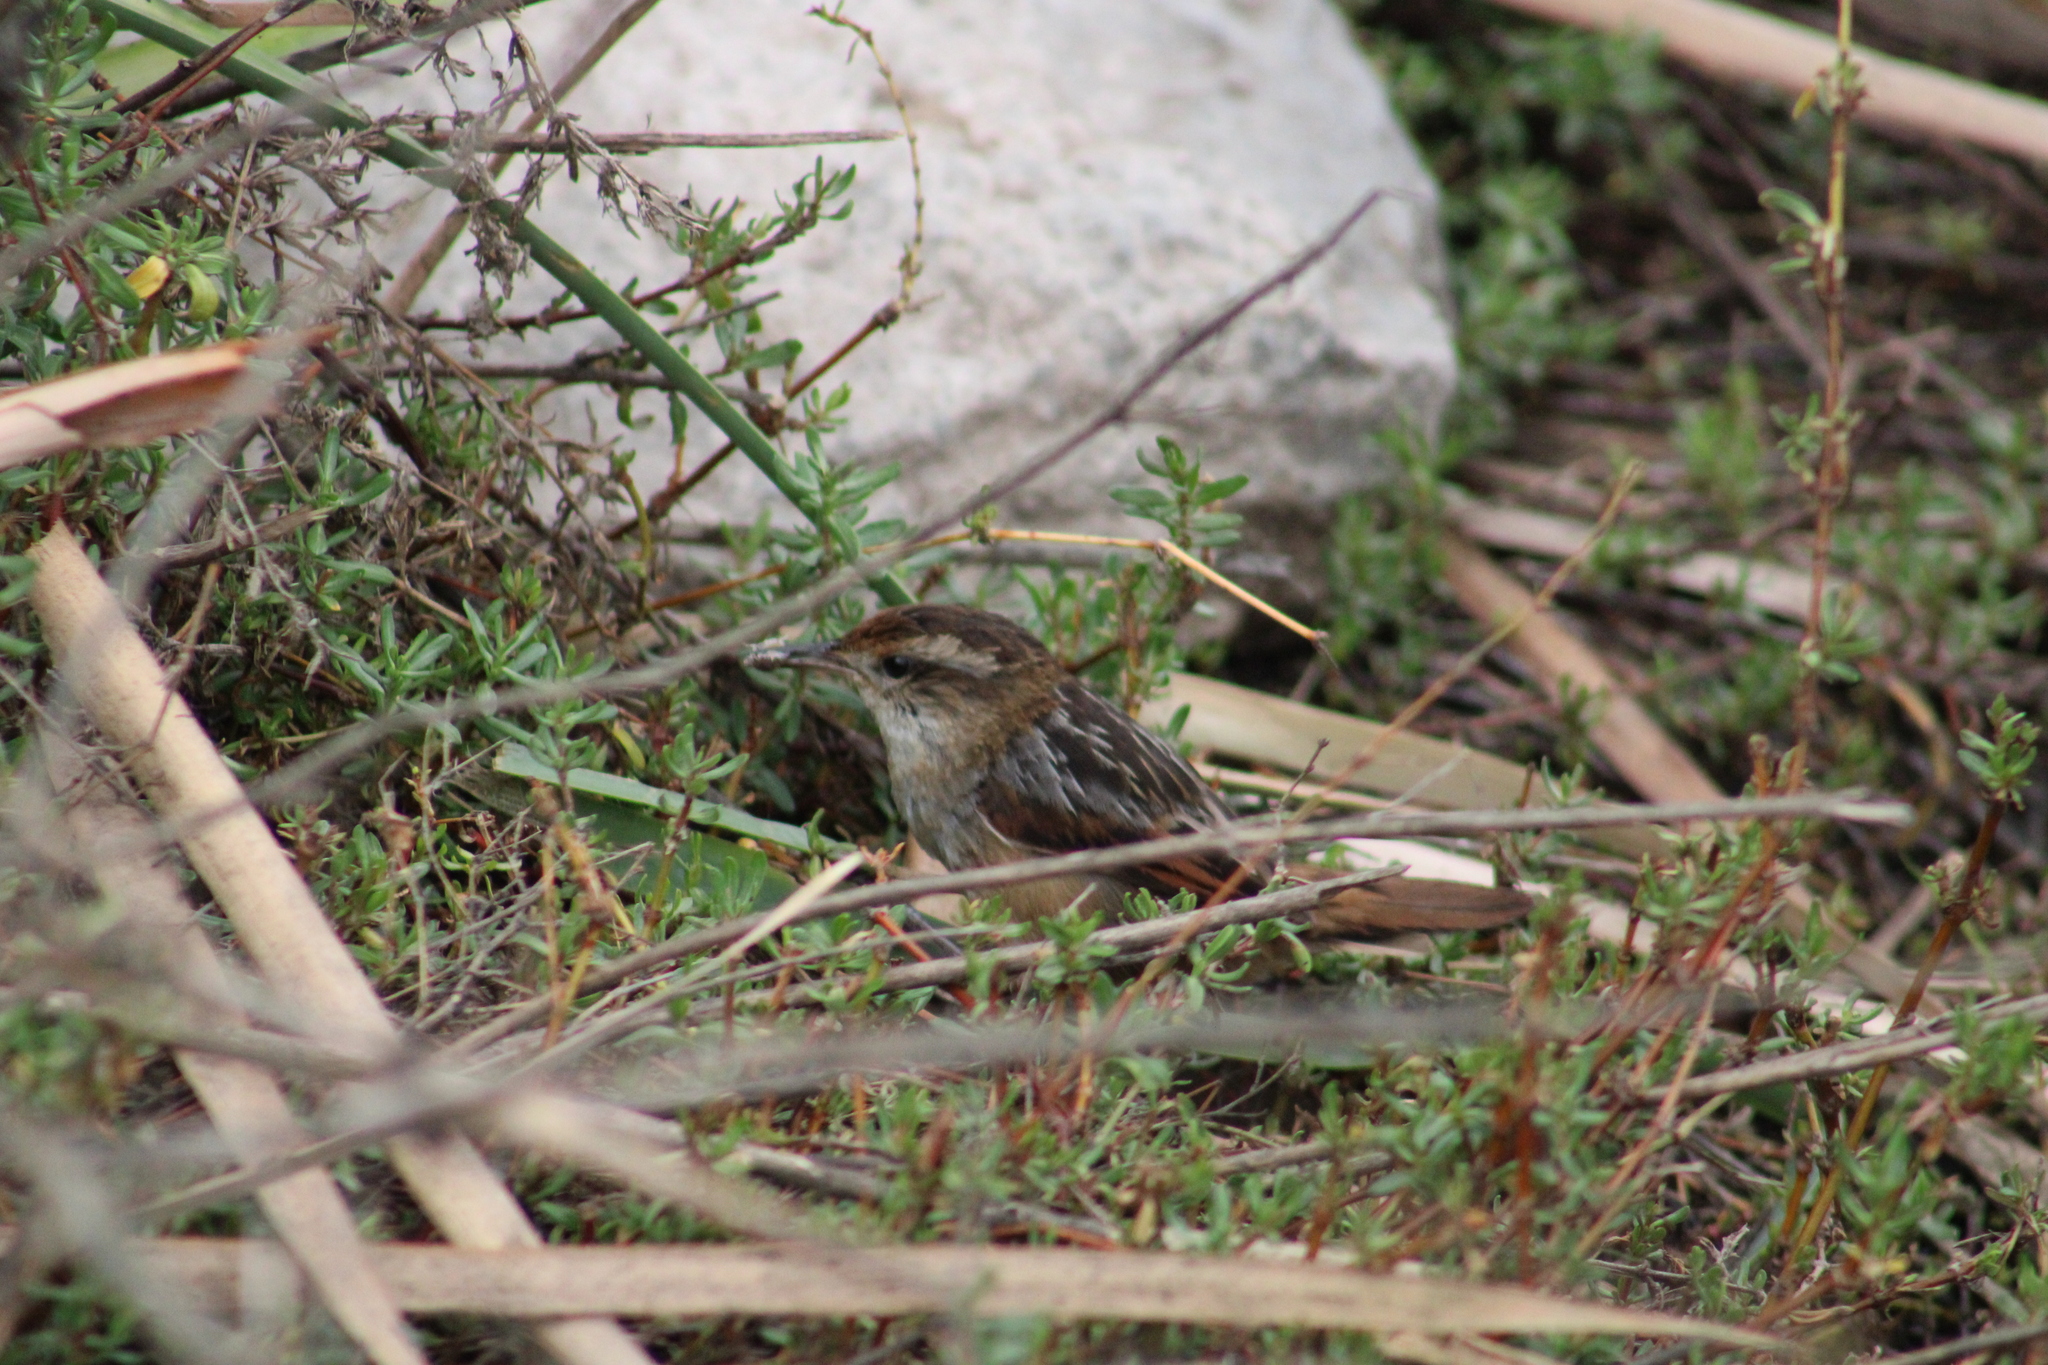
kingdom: Animalia
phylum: Chordata
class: Aves
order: Passeriformes
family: Furnariidae
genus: Phleocryptes
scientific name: Phleocryptes melanops
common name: Wren-like rushbird
